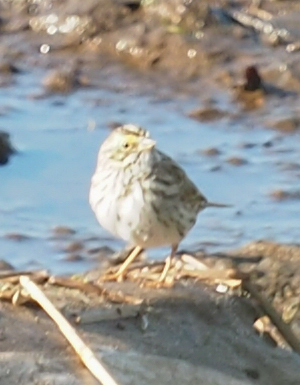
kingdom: Animalia
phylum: Chordata
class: Aves
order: Passeriformes
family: Passerellidae
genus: Passerculus
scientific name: Passerculus sandwichensis
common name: Savannah sparrow
